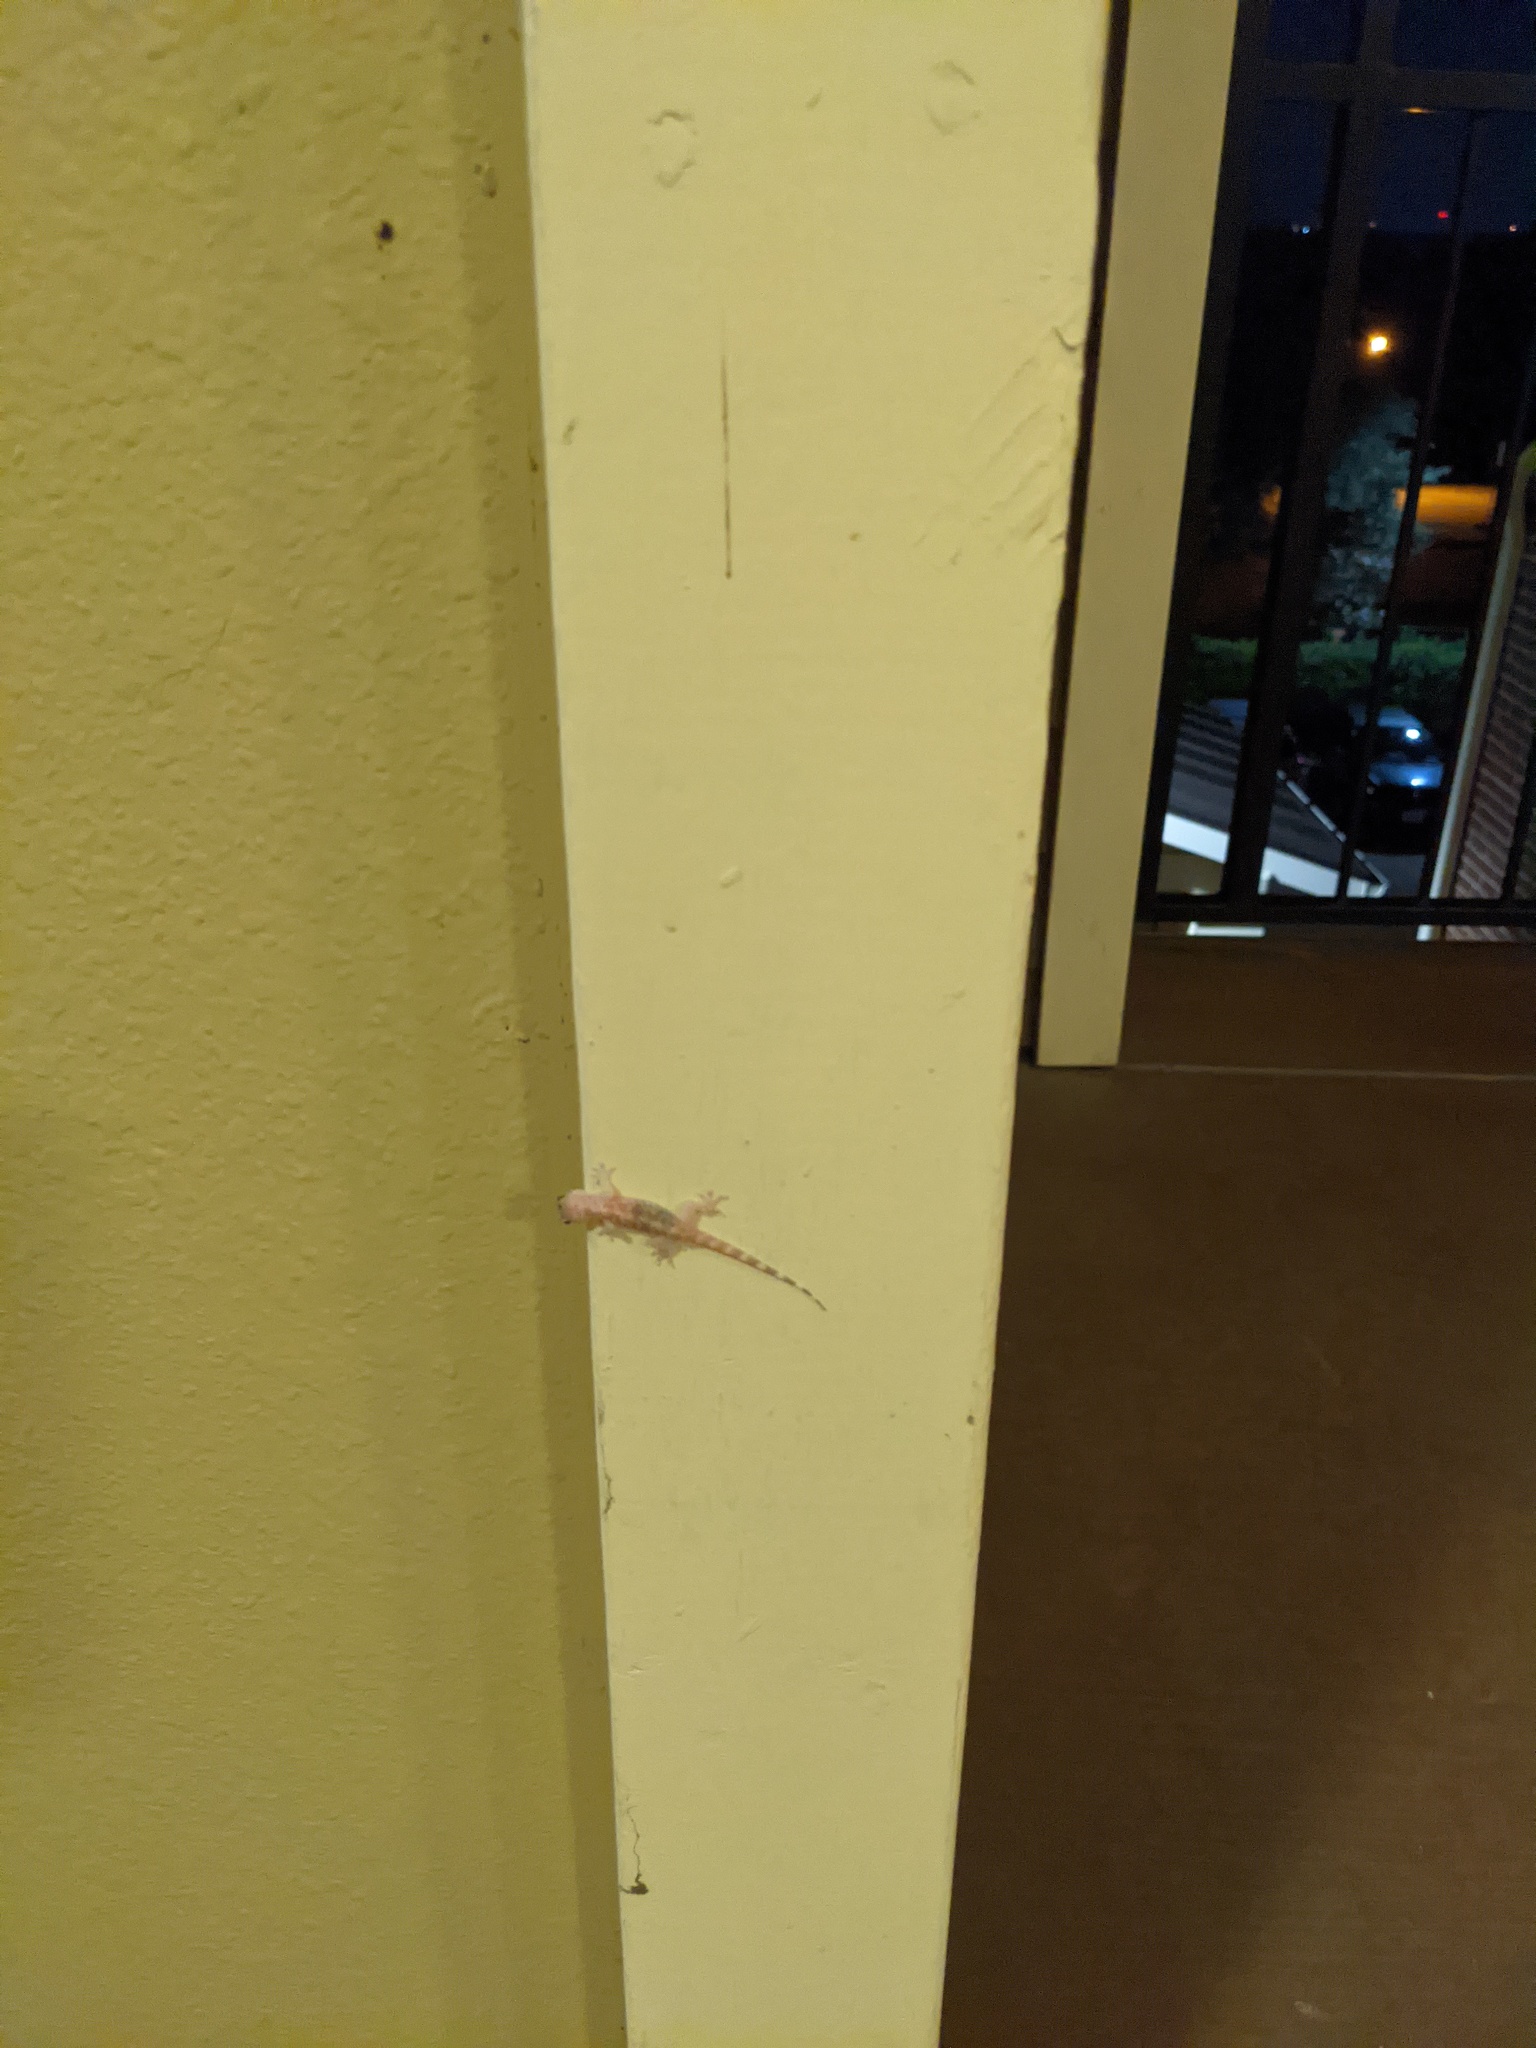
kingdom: Animalia
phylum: Chordata
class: Squamata
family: Gekkonidae
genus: Hemidactylus
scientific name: Hemidactylus turcicus
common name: Turkish gecko
